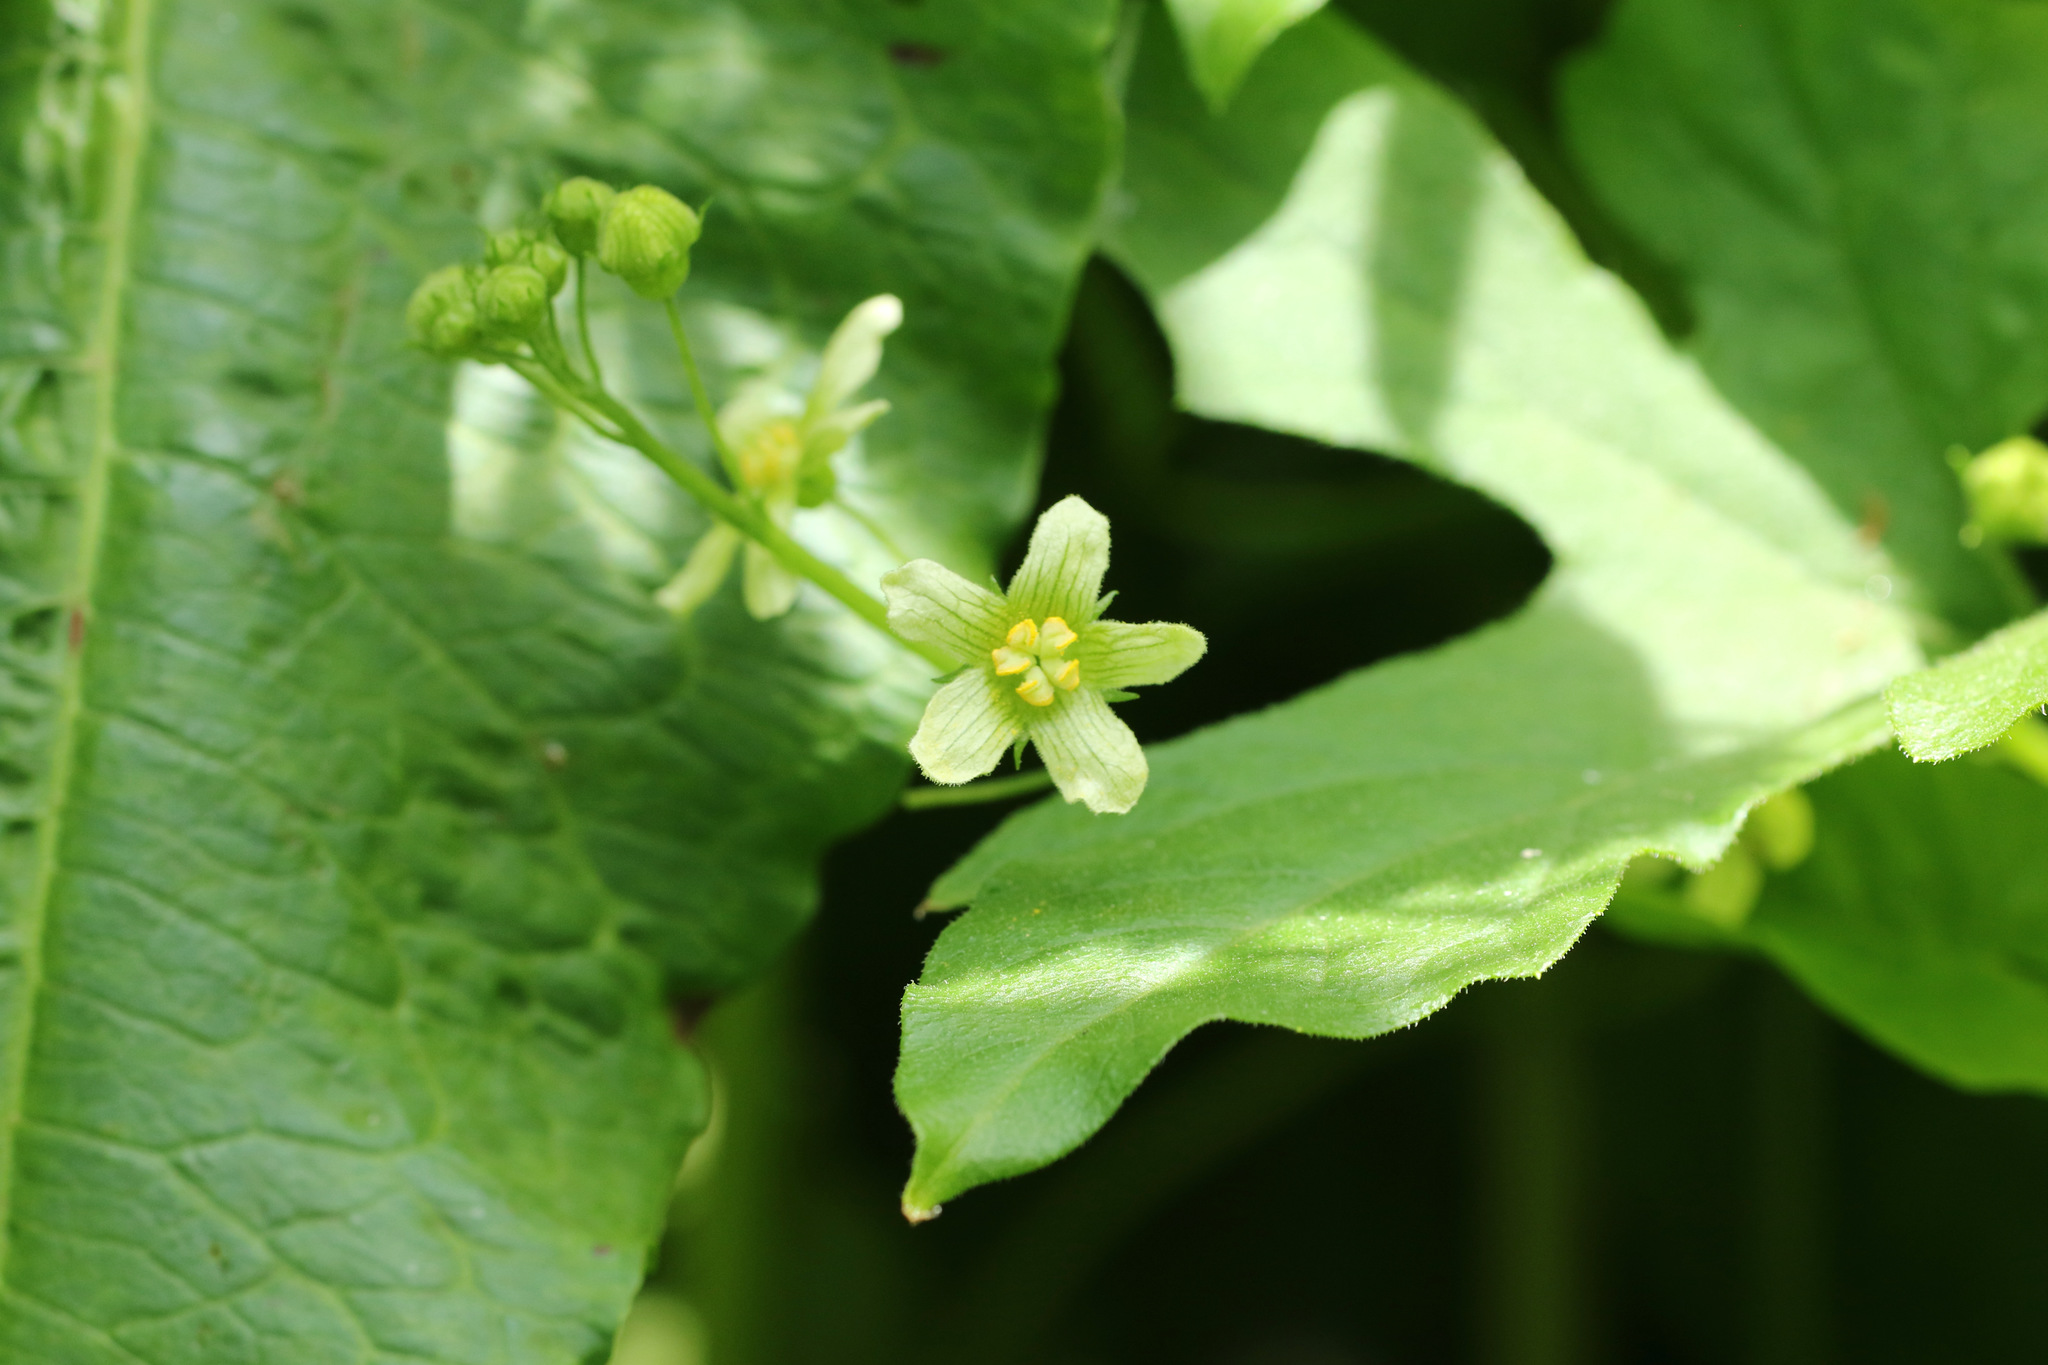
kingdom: Plantae
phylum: Tracheophyta
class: Magnoliopsida
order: Cucurbitales
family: Cucurbitaceae
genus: Bryonia
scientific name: Bryonia cretica
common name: Cretan bryony
